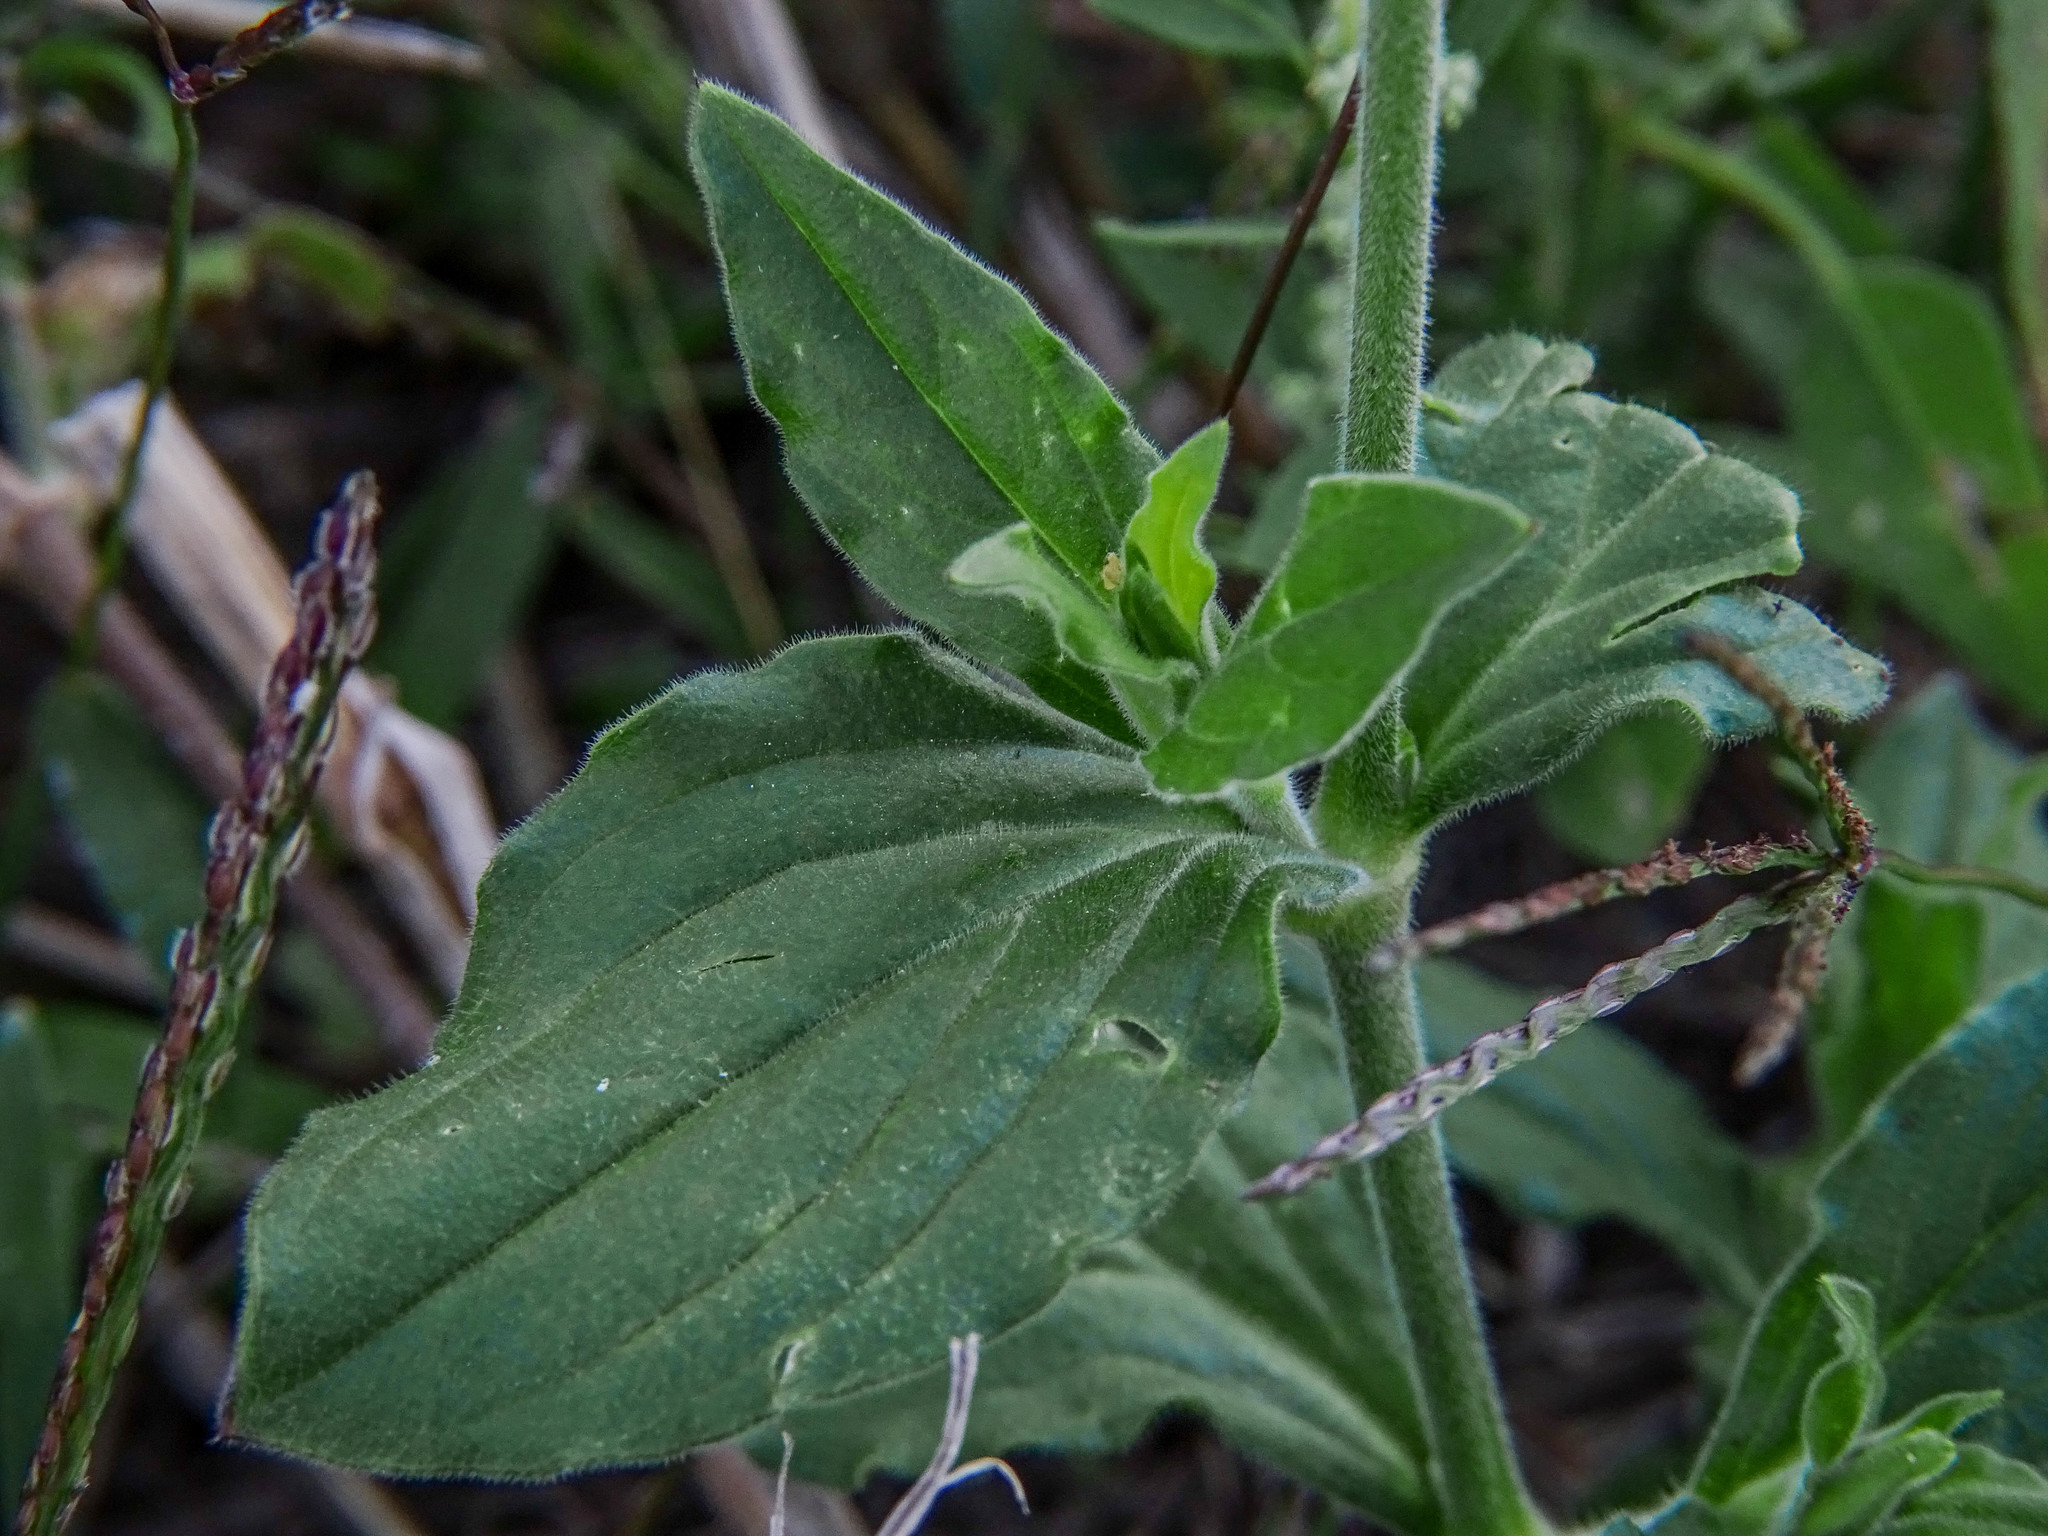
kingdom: Plantae
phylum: Tracheophyta
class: Magnoliopsida
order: Caryophyllales
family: Caryophyllaceae
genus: Silene
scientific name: Silene latifolia
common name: White campion
